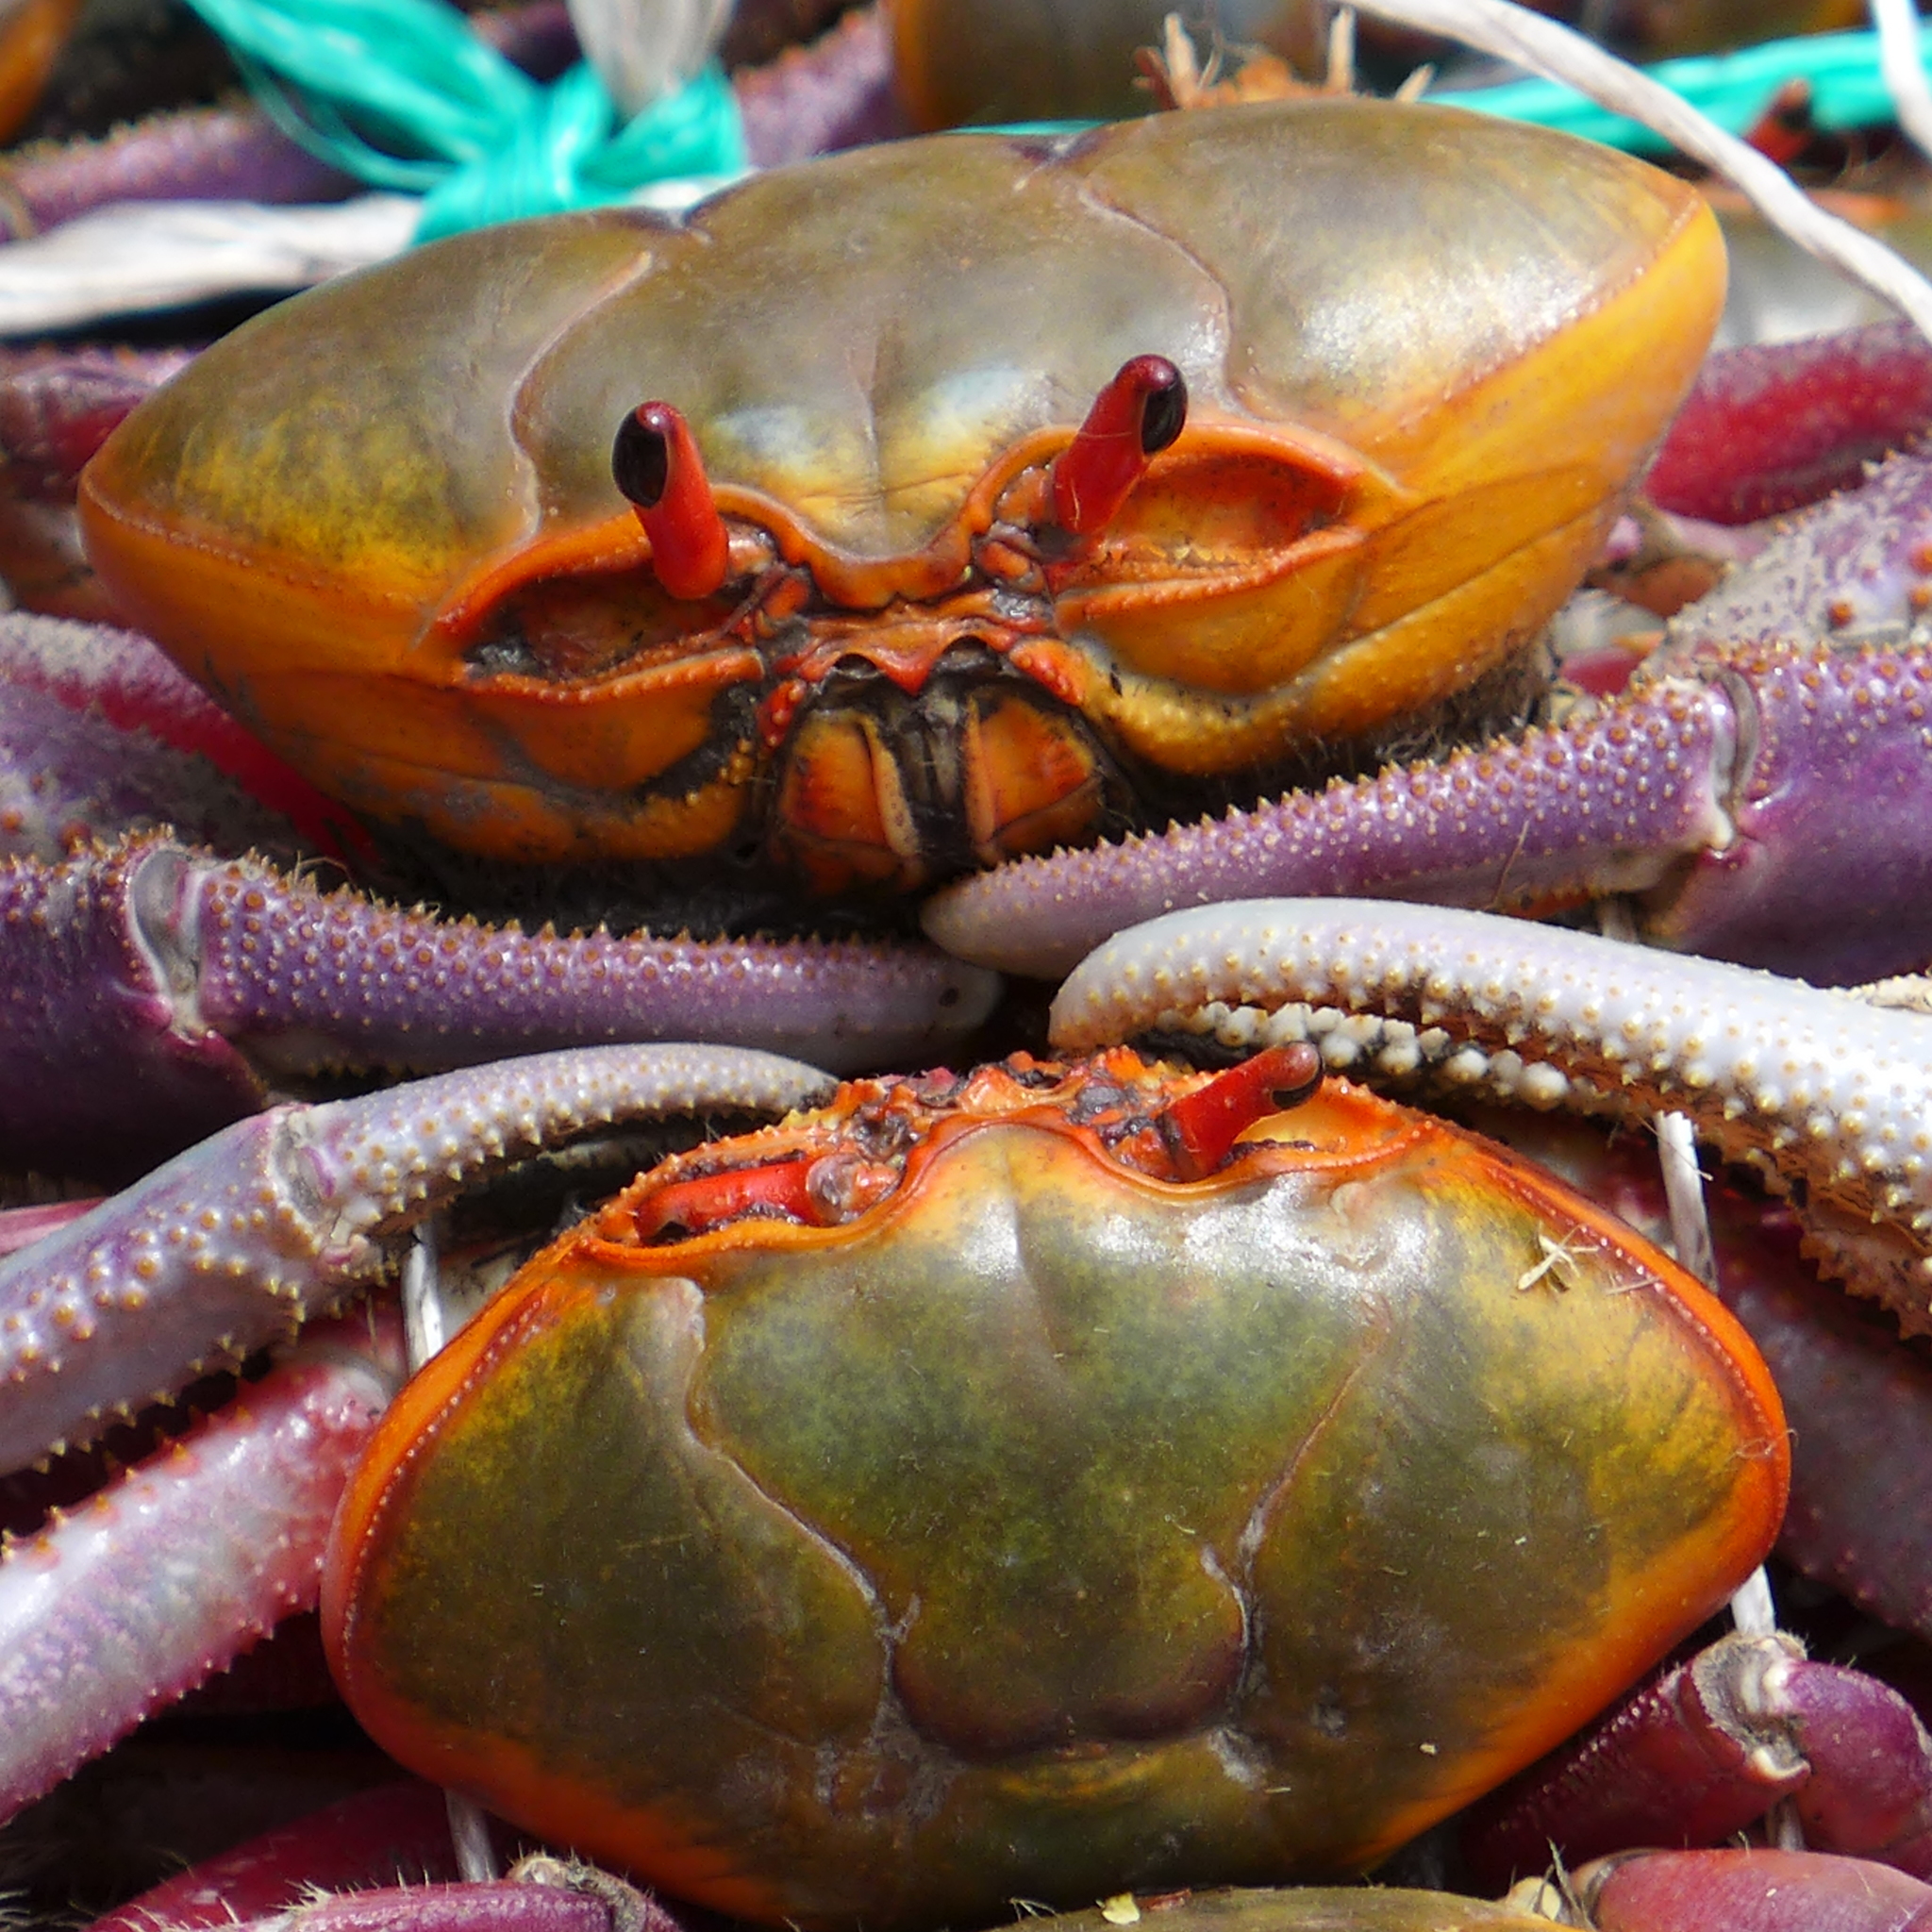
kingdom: Animalia
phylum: Arthropoda
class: Malacostraca
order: Decapoda
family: Ocypodidae
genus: Ucides
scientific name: Ucides occidentalis
